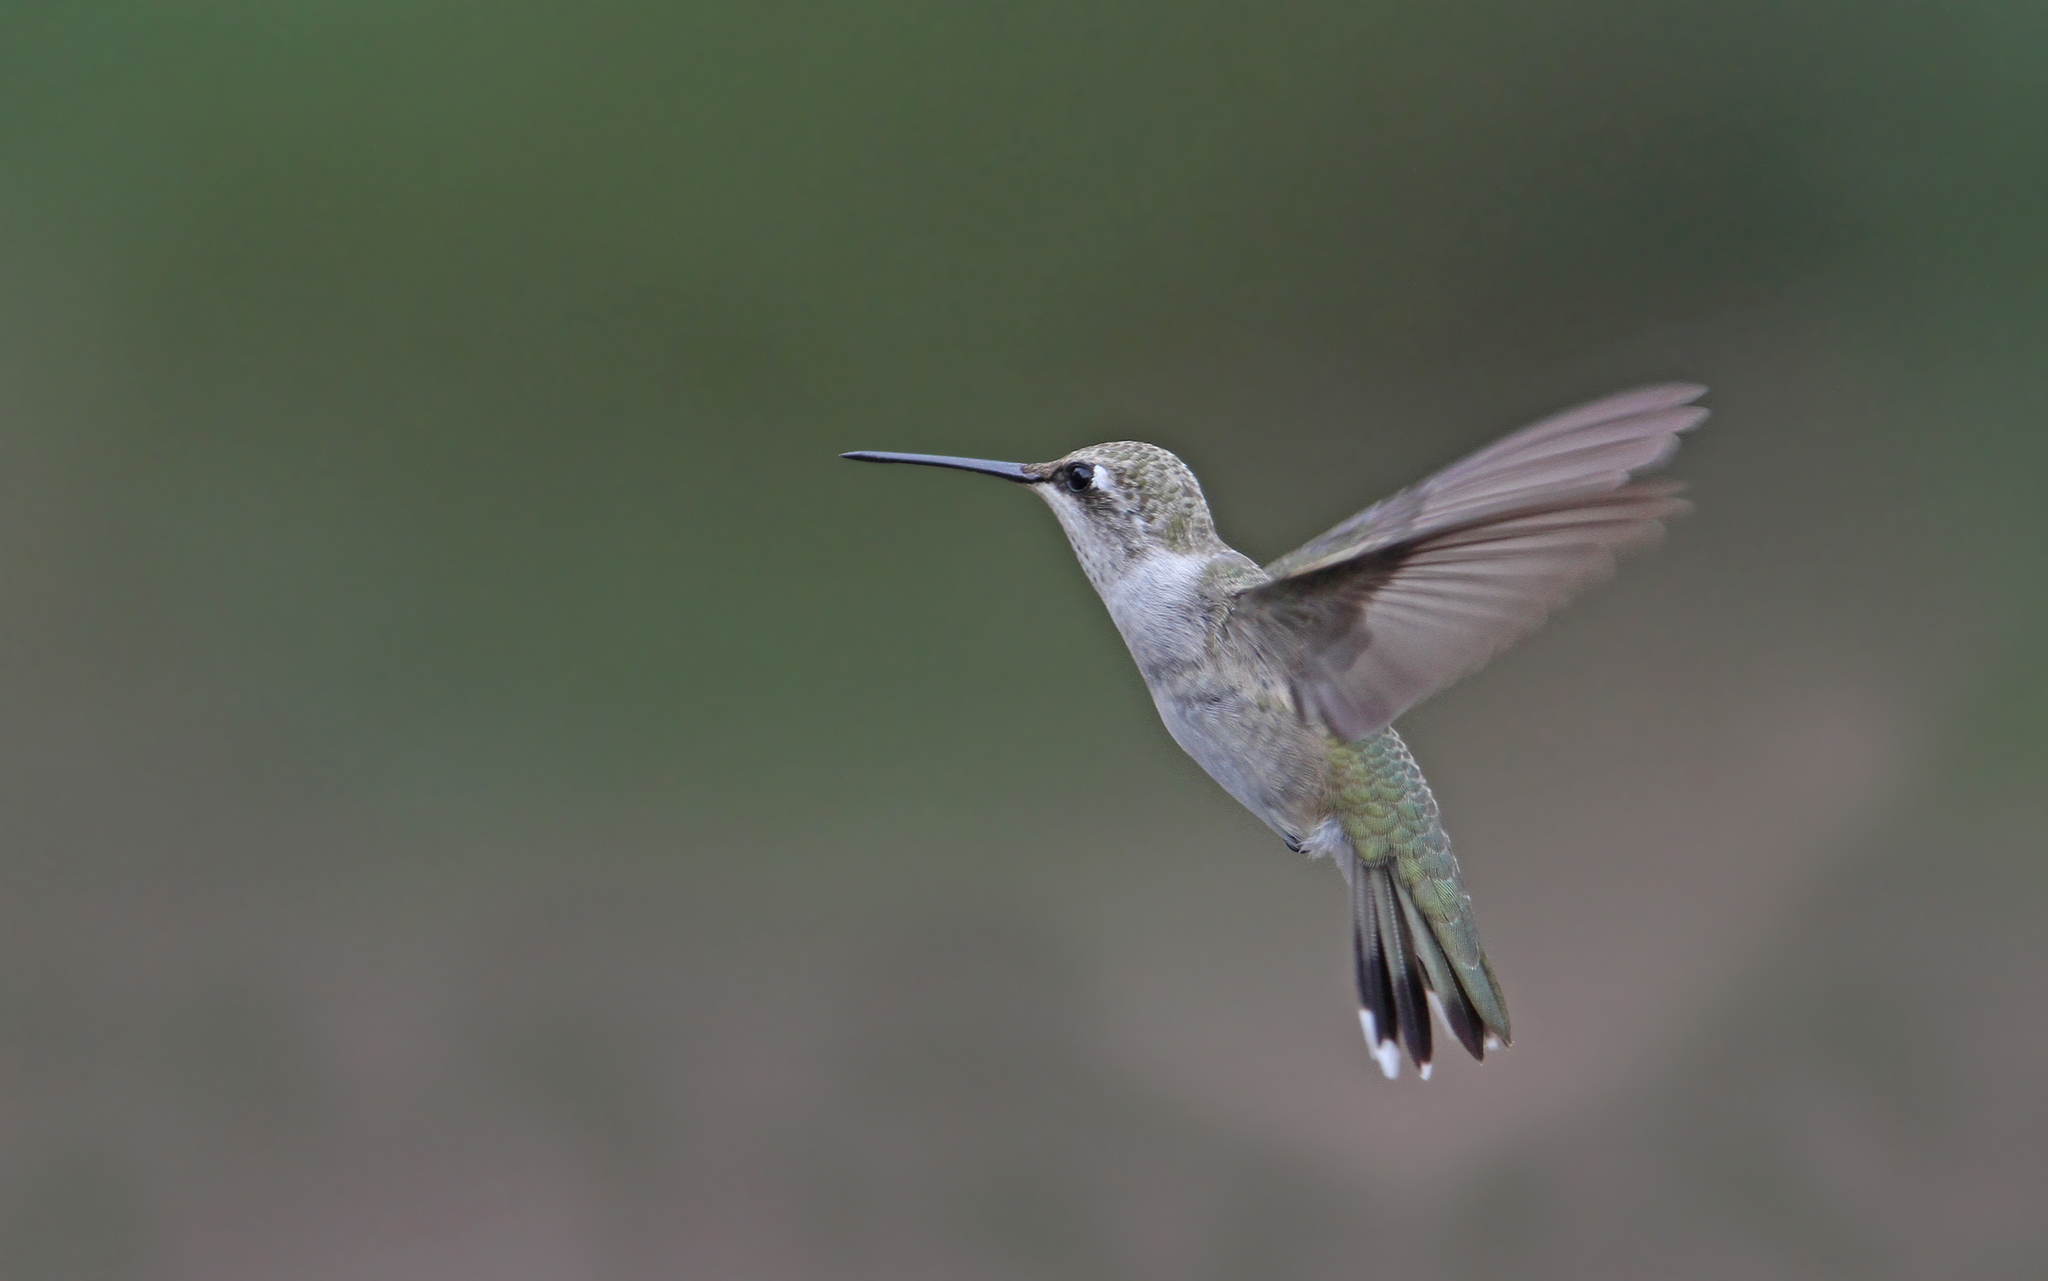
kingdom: Animalia
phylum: Chordata
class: Aves
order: Apodiformes
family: Trochilidae
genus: Archilochus
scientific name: Archilochus alexandri
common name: Black-chinned hummingbird
